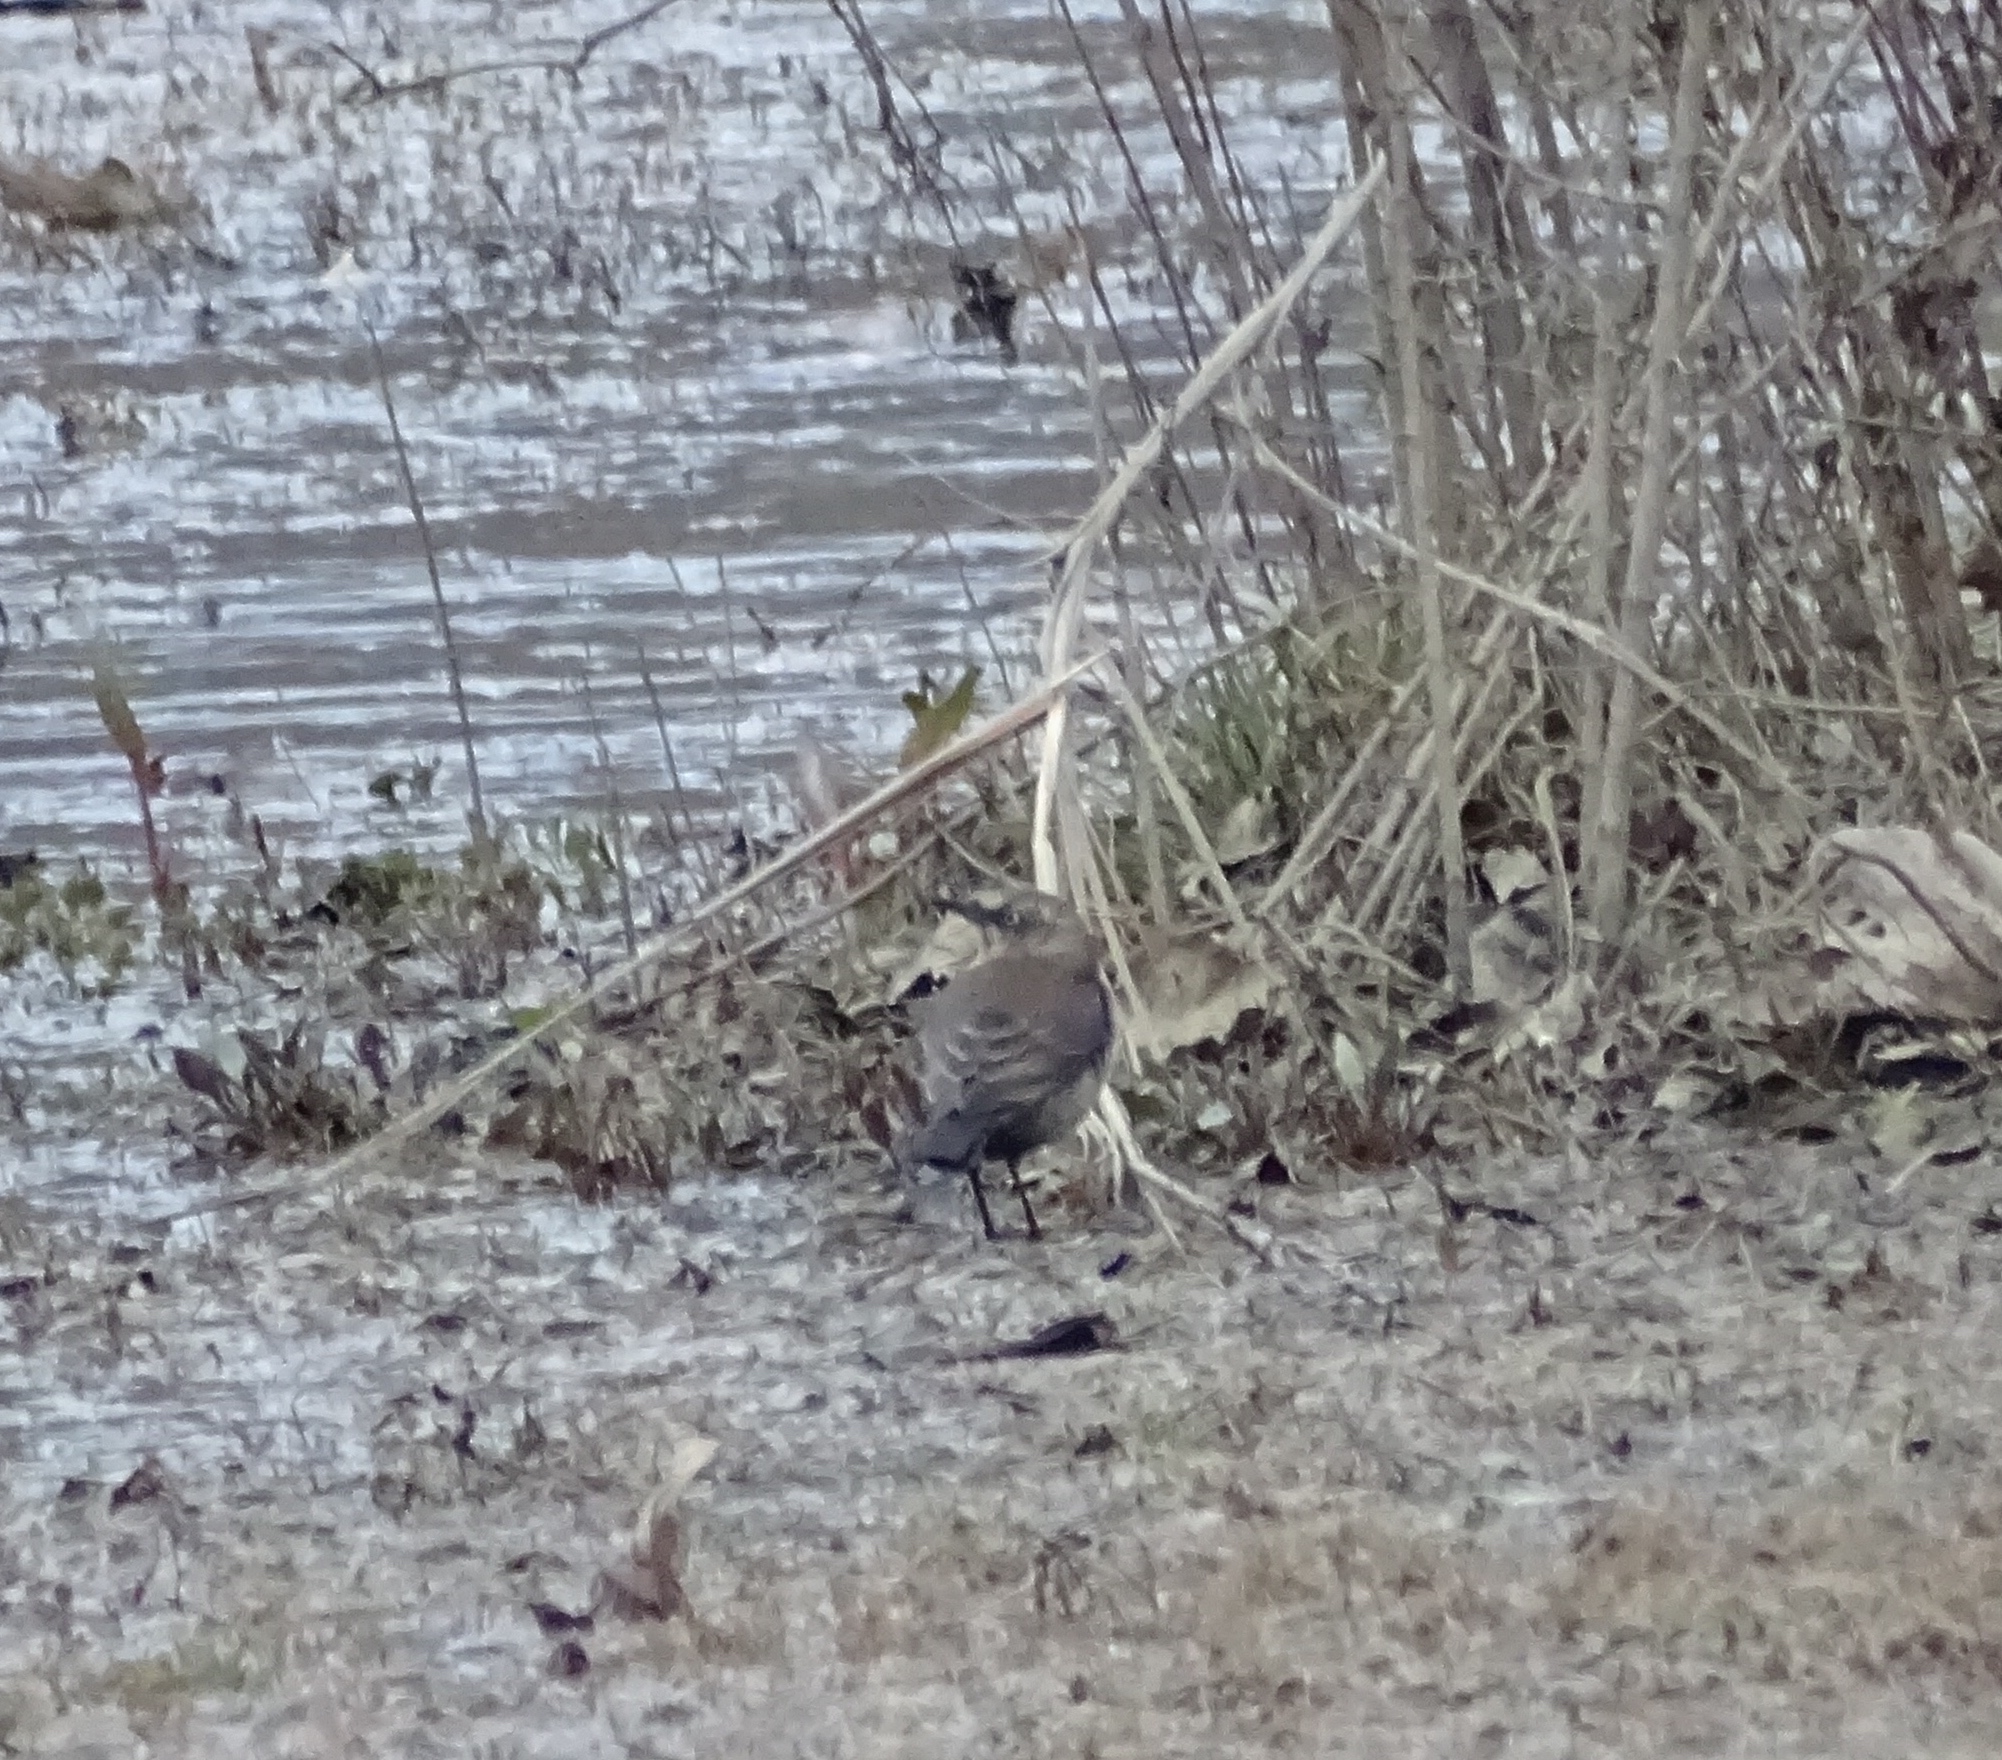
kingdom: Animalia
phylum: Chordata
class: Aves
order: Passeriformes
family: Icteridae
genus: Euphagus
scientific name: Euphagus carolinus
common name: Rusty blackbird
